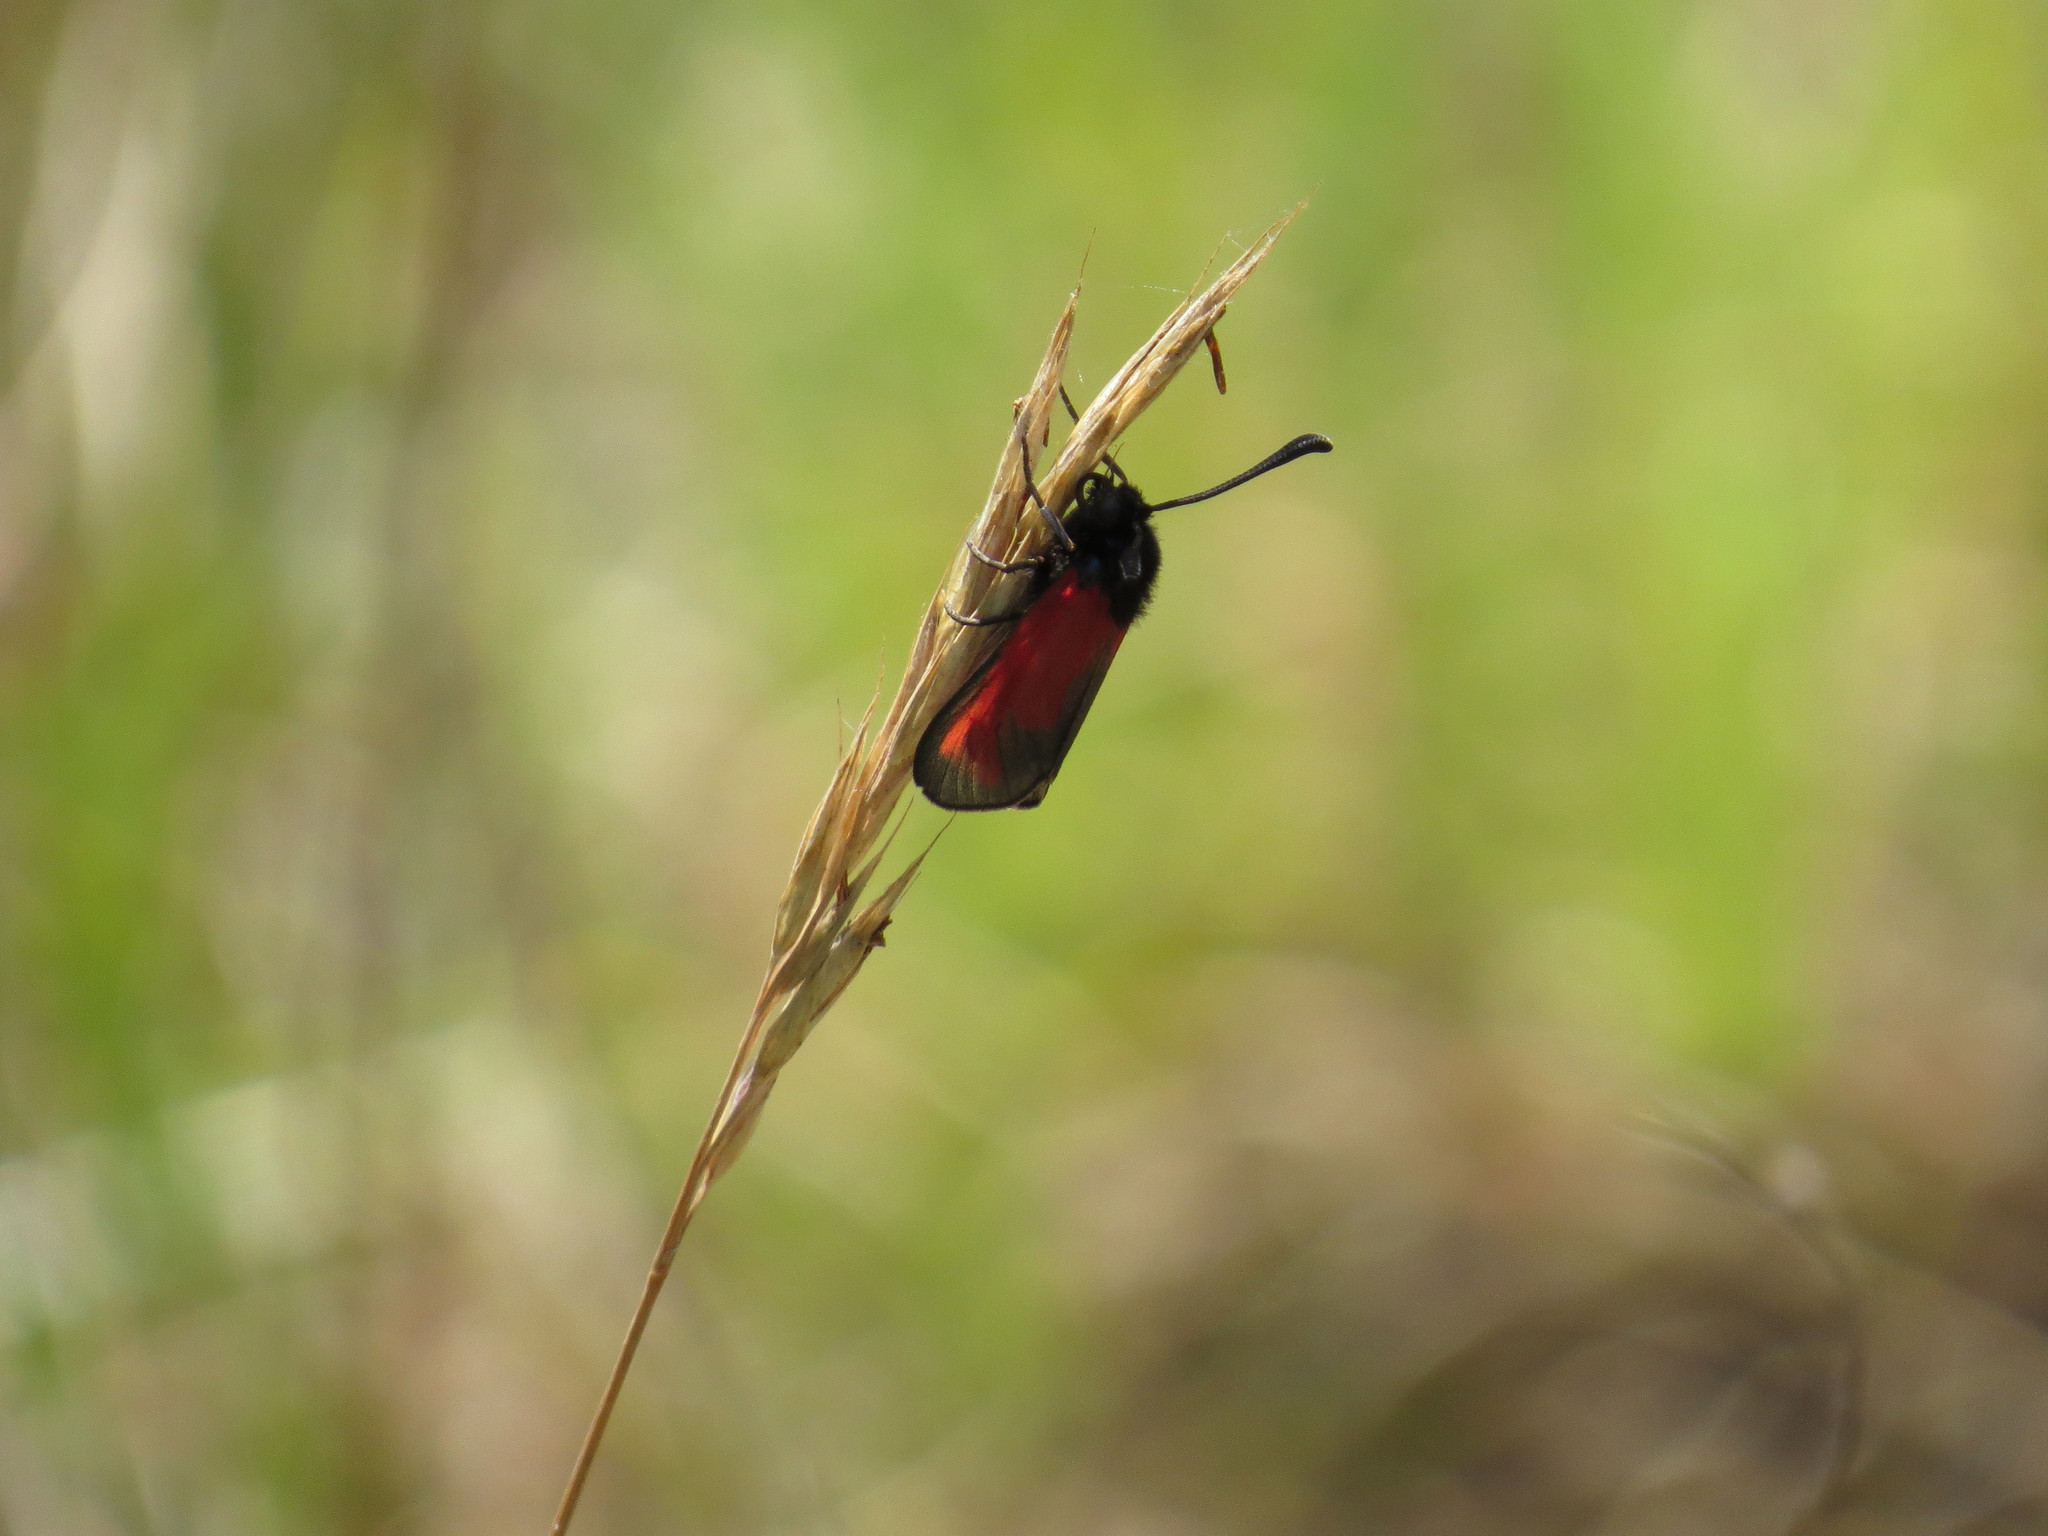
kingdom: Animalia
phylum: Arthropoda
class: Insecta
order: Lepidoptera
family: Zygaenidae
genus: Zygaena
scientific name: Zygaena erythrus
